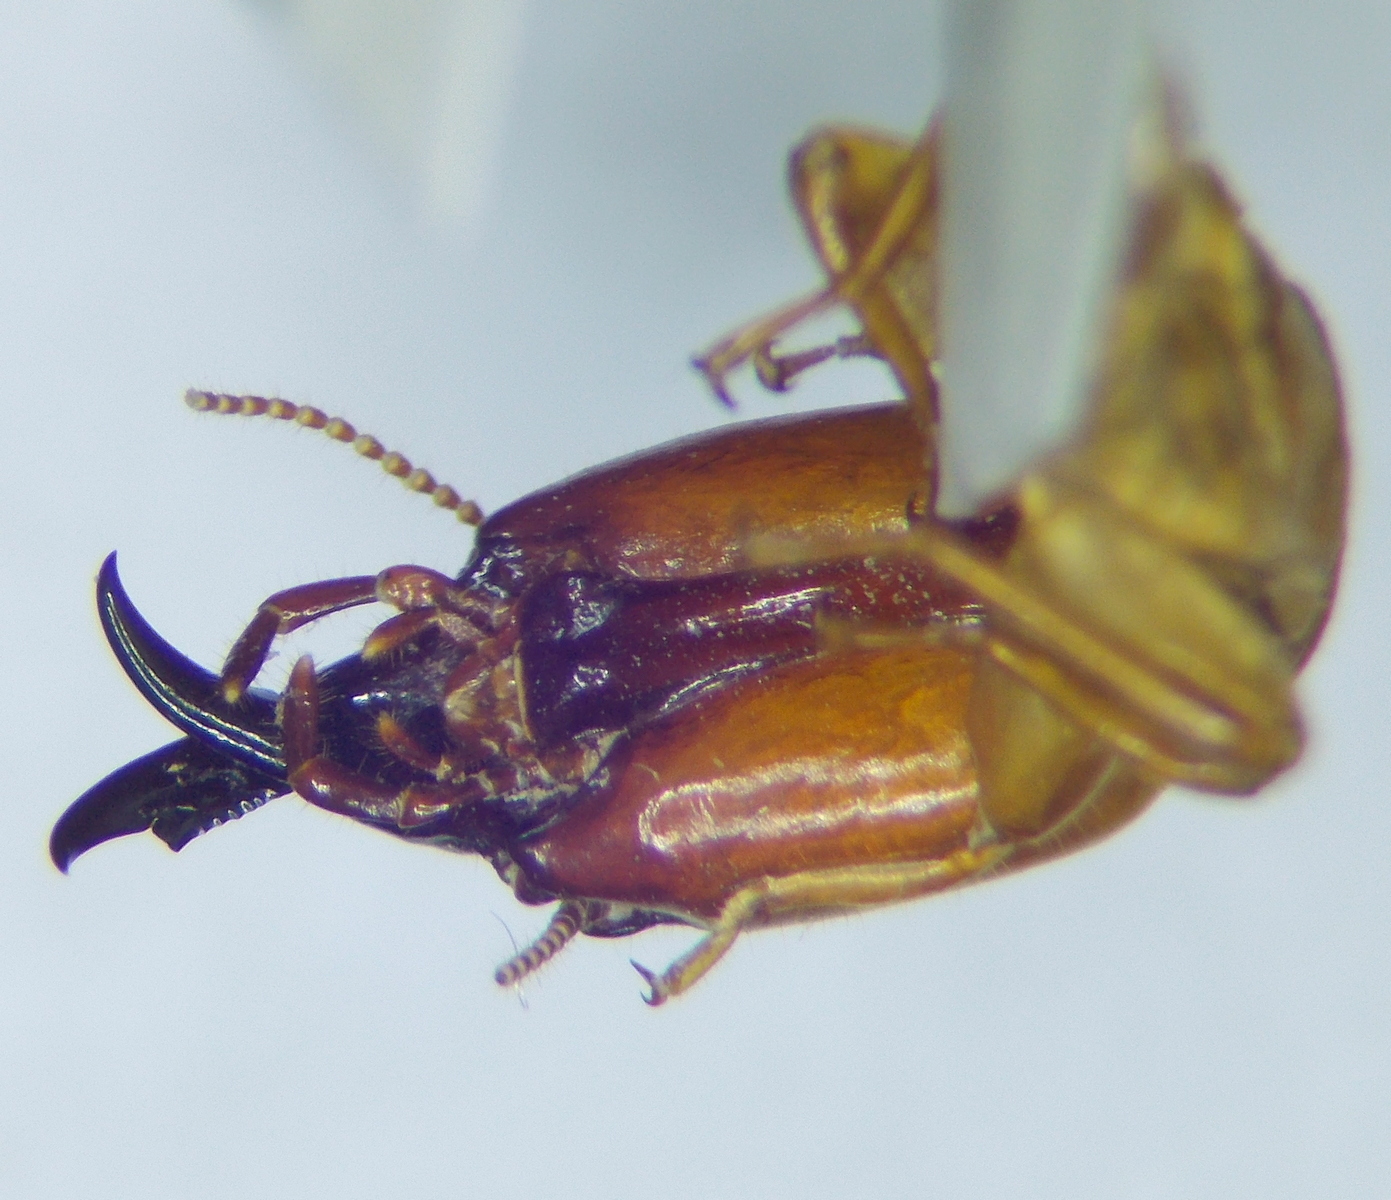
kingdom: Animalia
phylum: Arthropoda
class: Insecta
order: Blattodea
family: Archotermopsidae
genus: Zootermopsis
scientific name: Zootermopsis
